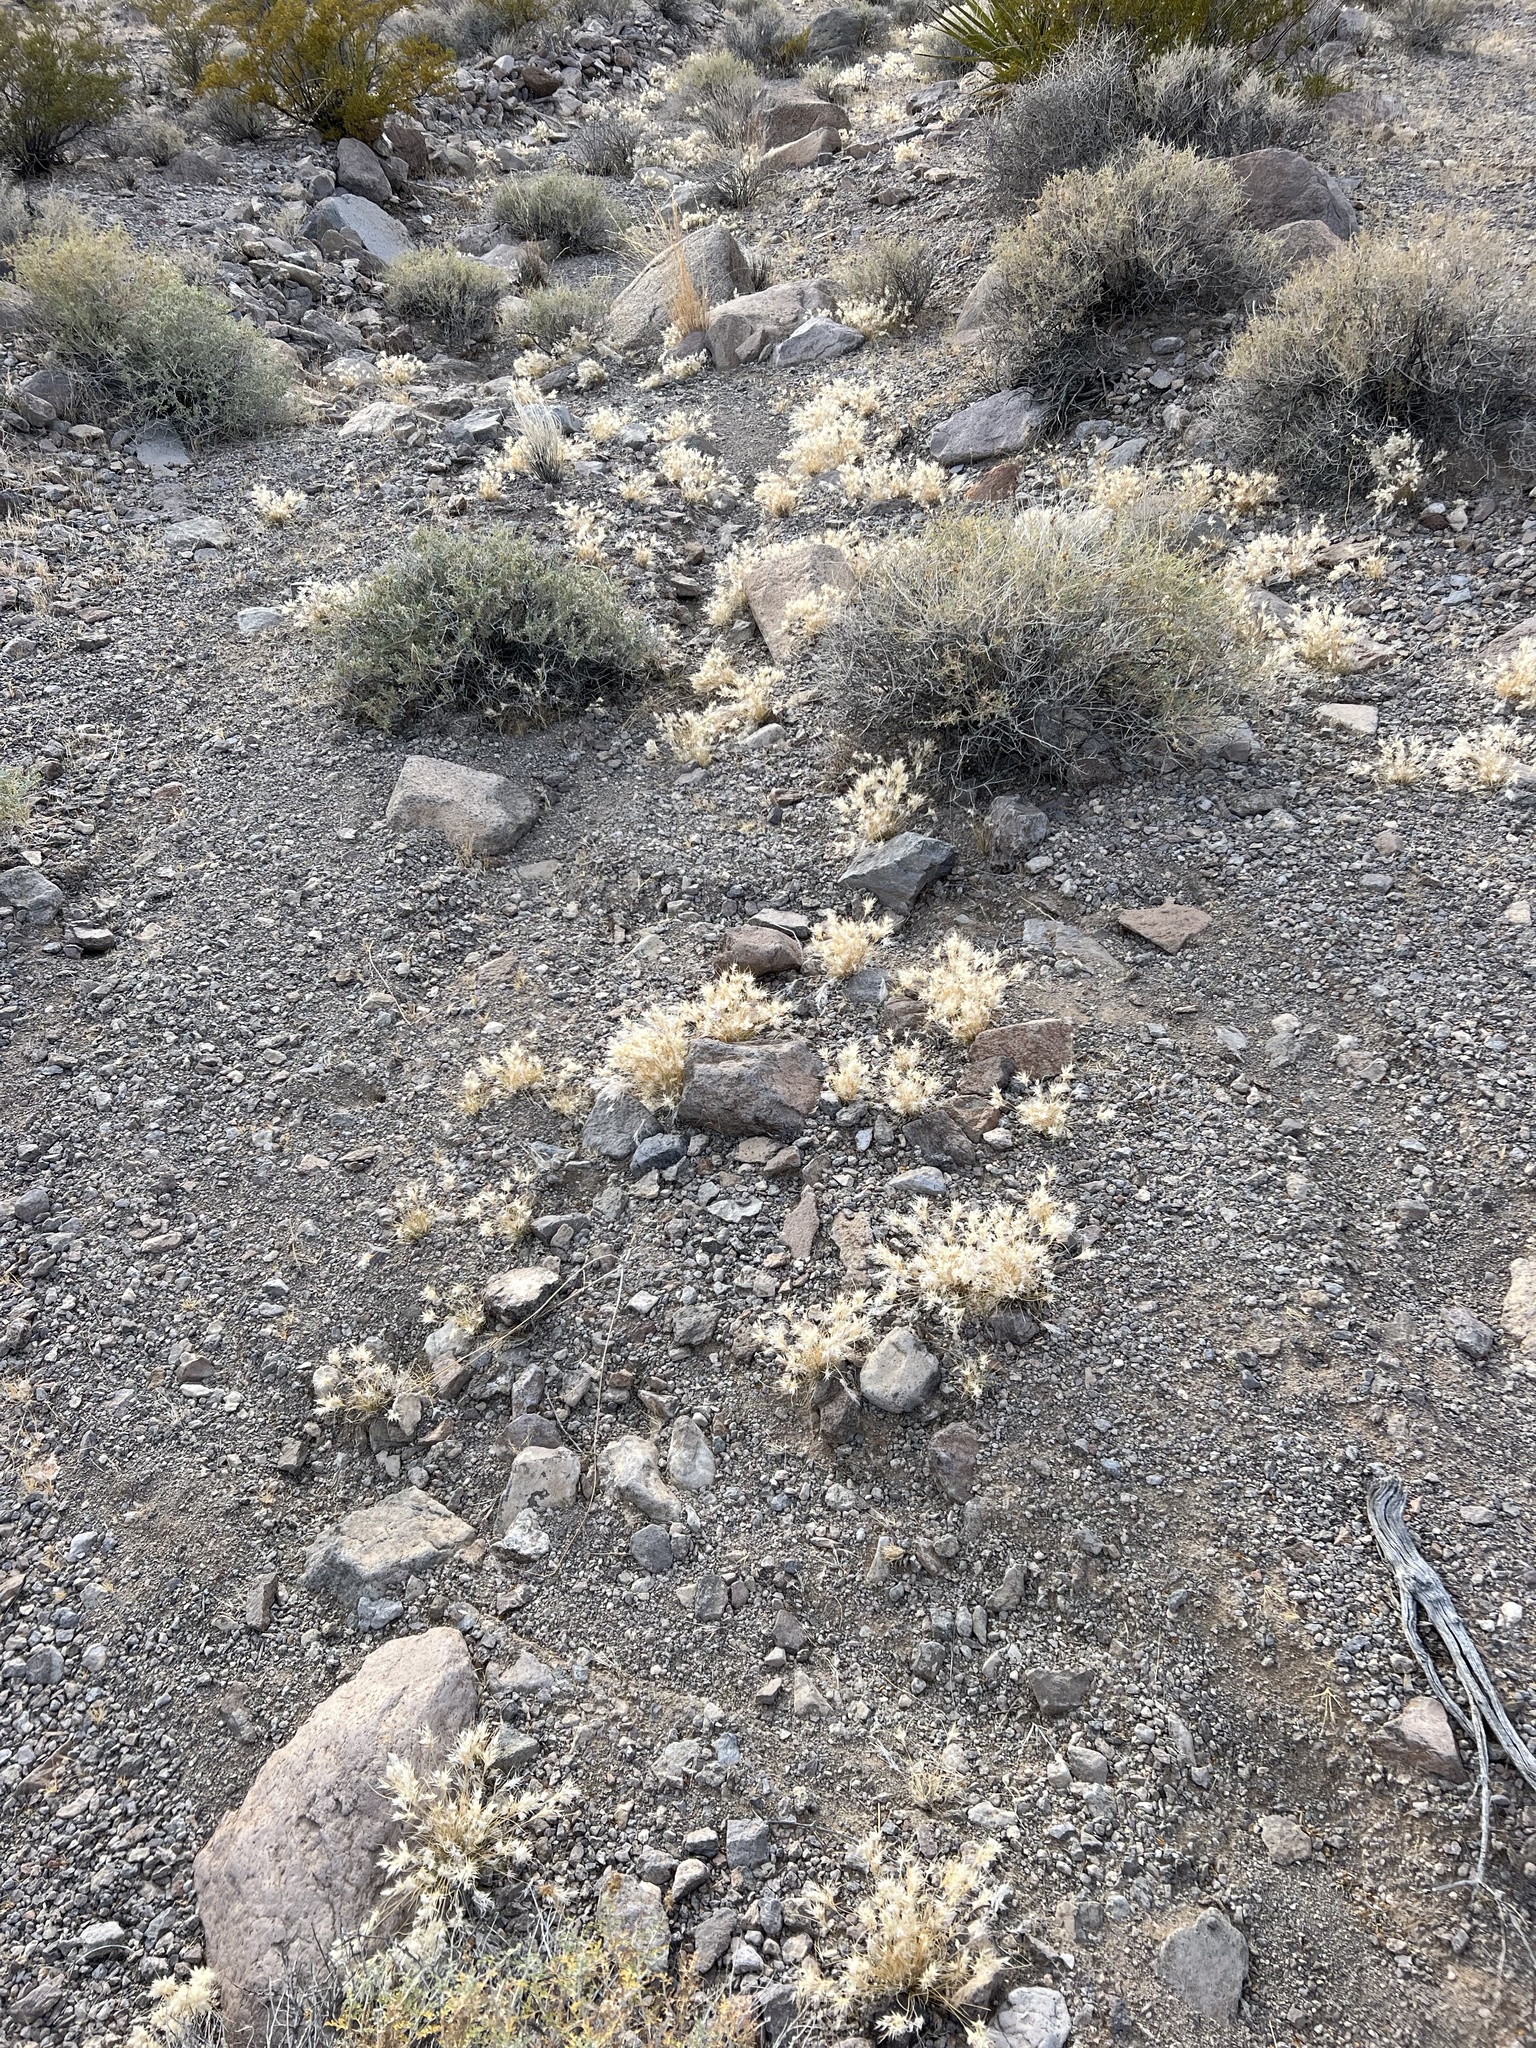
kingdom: Plantae
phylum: Tracheophyta
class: Liliopsida
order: Poales
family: Poaceae
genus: Dasyochloa
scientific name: Dasyochloa pulchella
